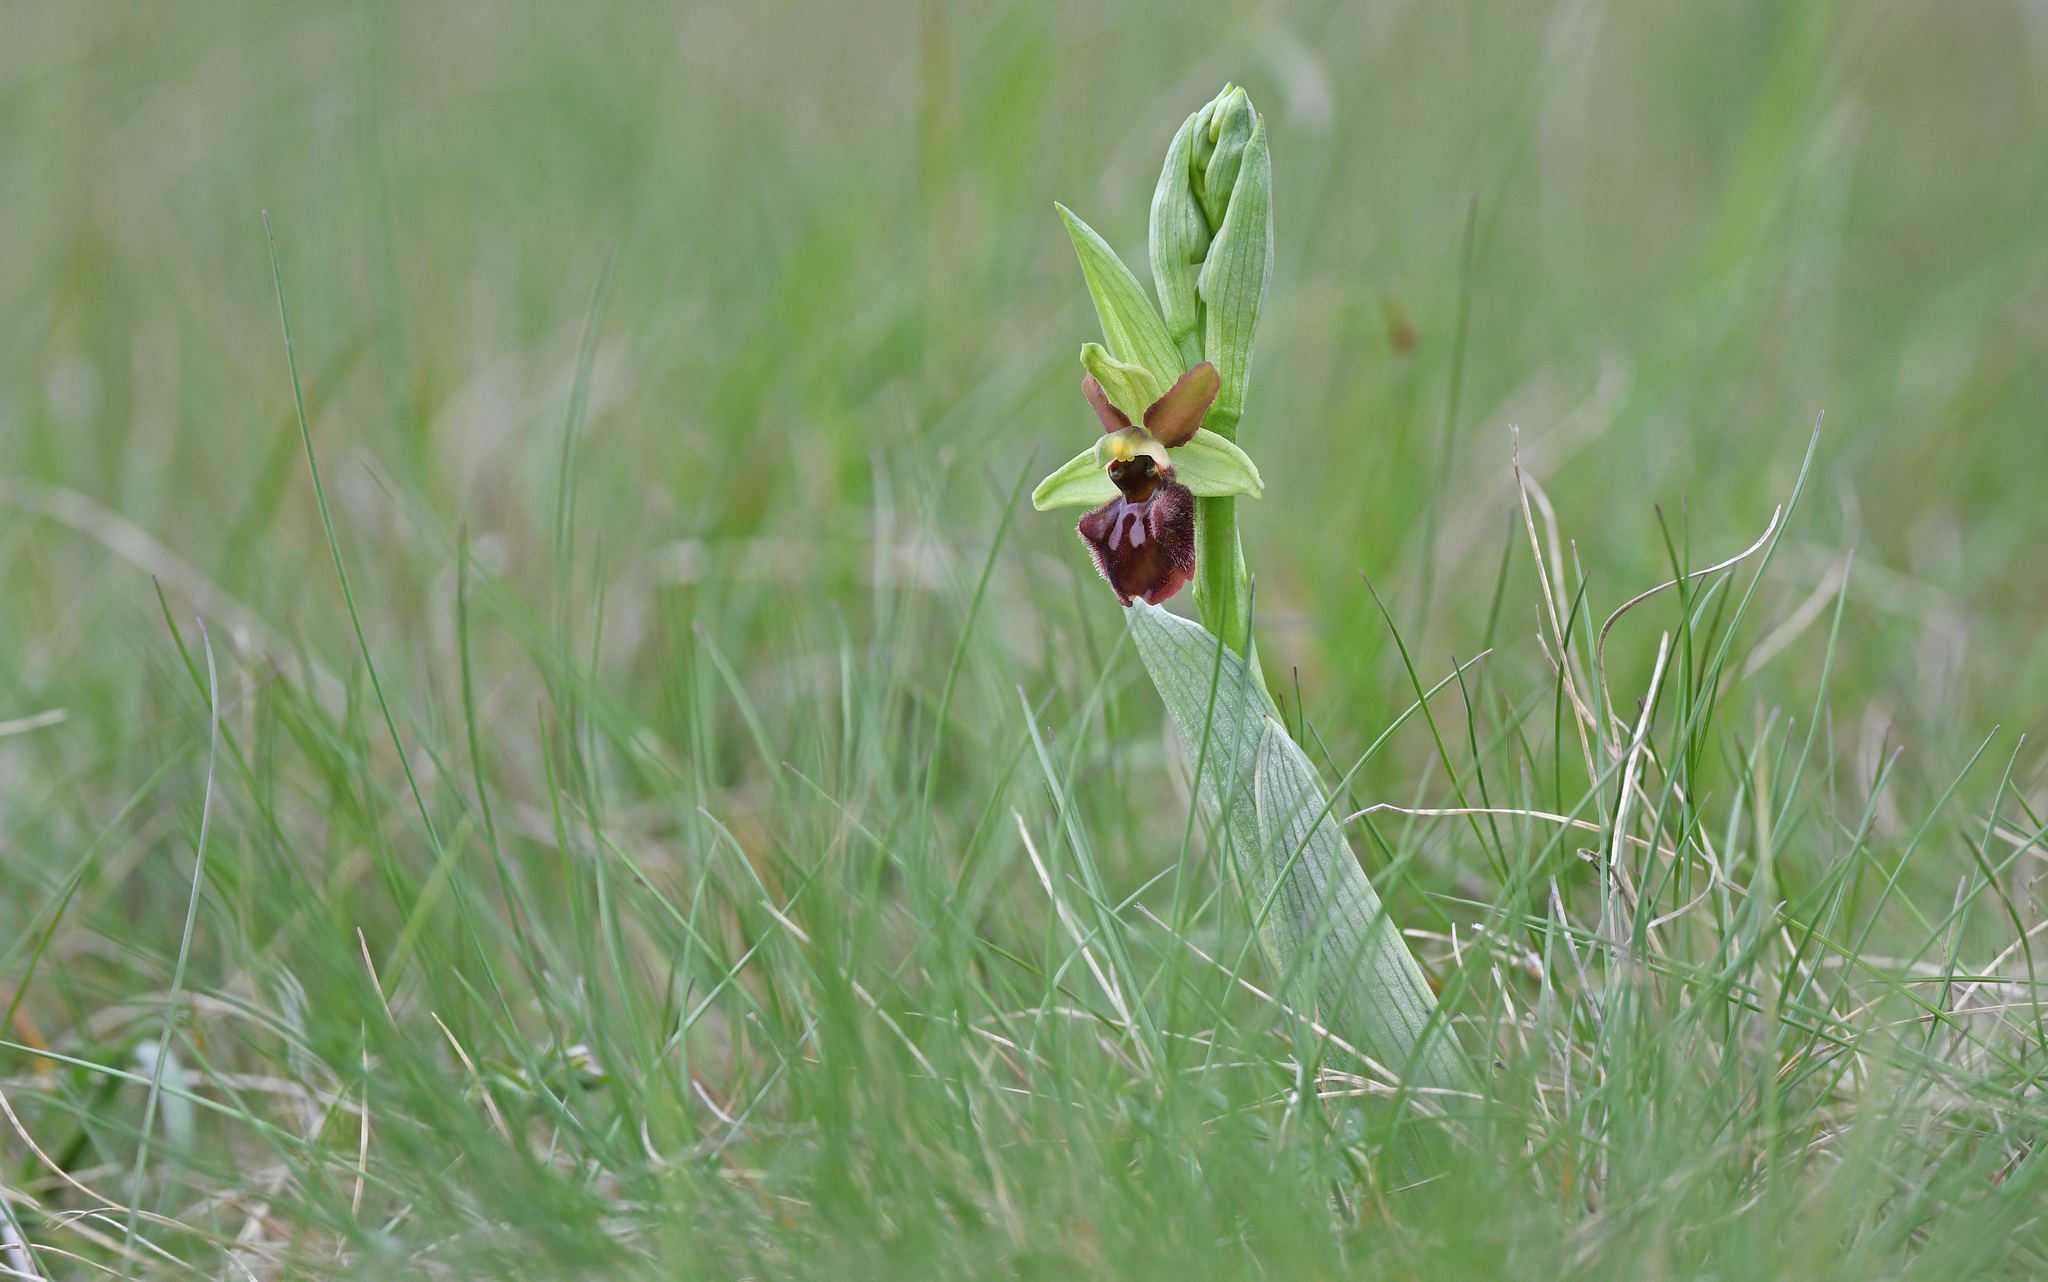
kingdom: Plantae
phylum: Tracheophyta
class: Liliopsida
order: Asparagales
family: Orchidaceae
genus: Ophrys
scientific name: Ophrys sphegodes
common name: Early spider-orchid
